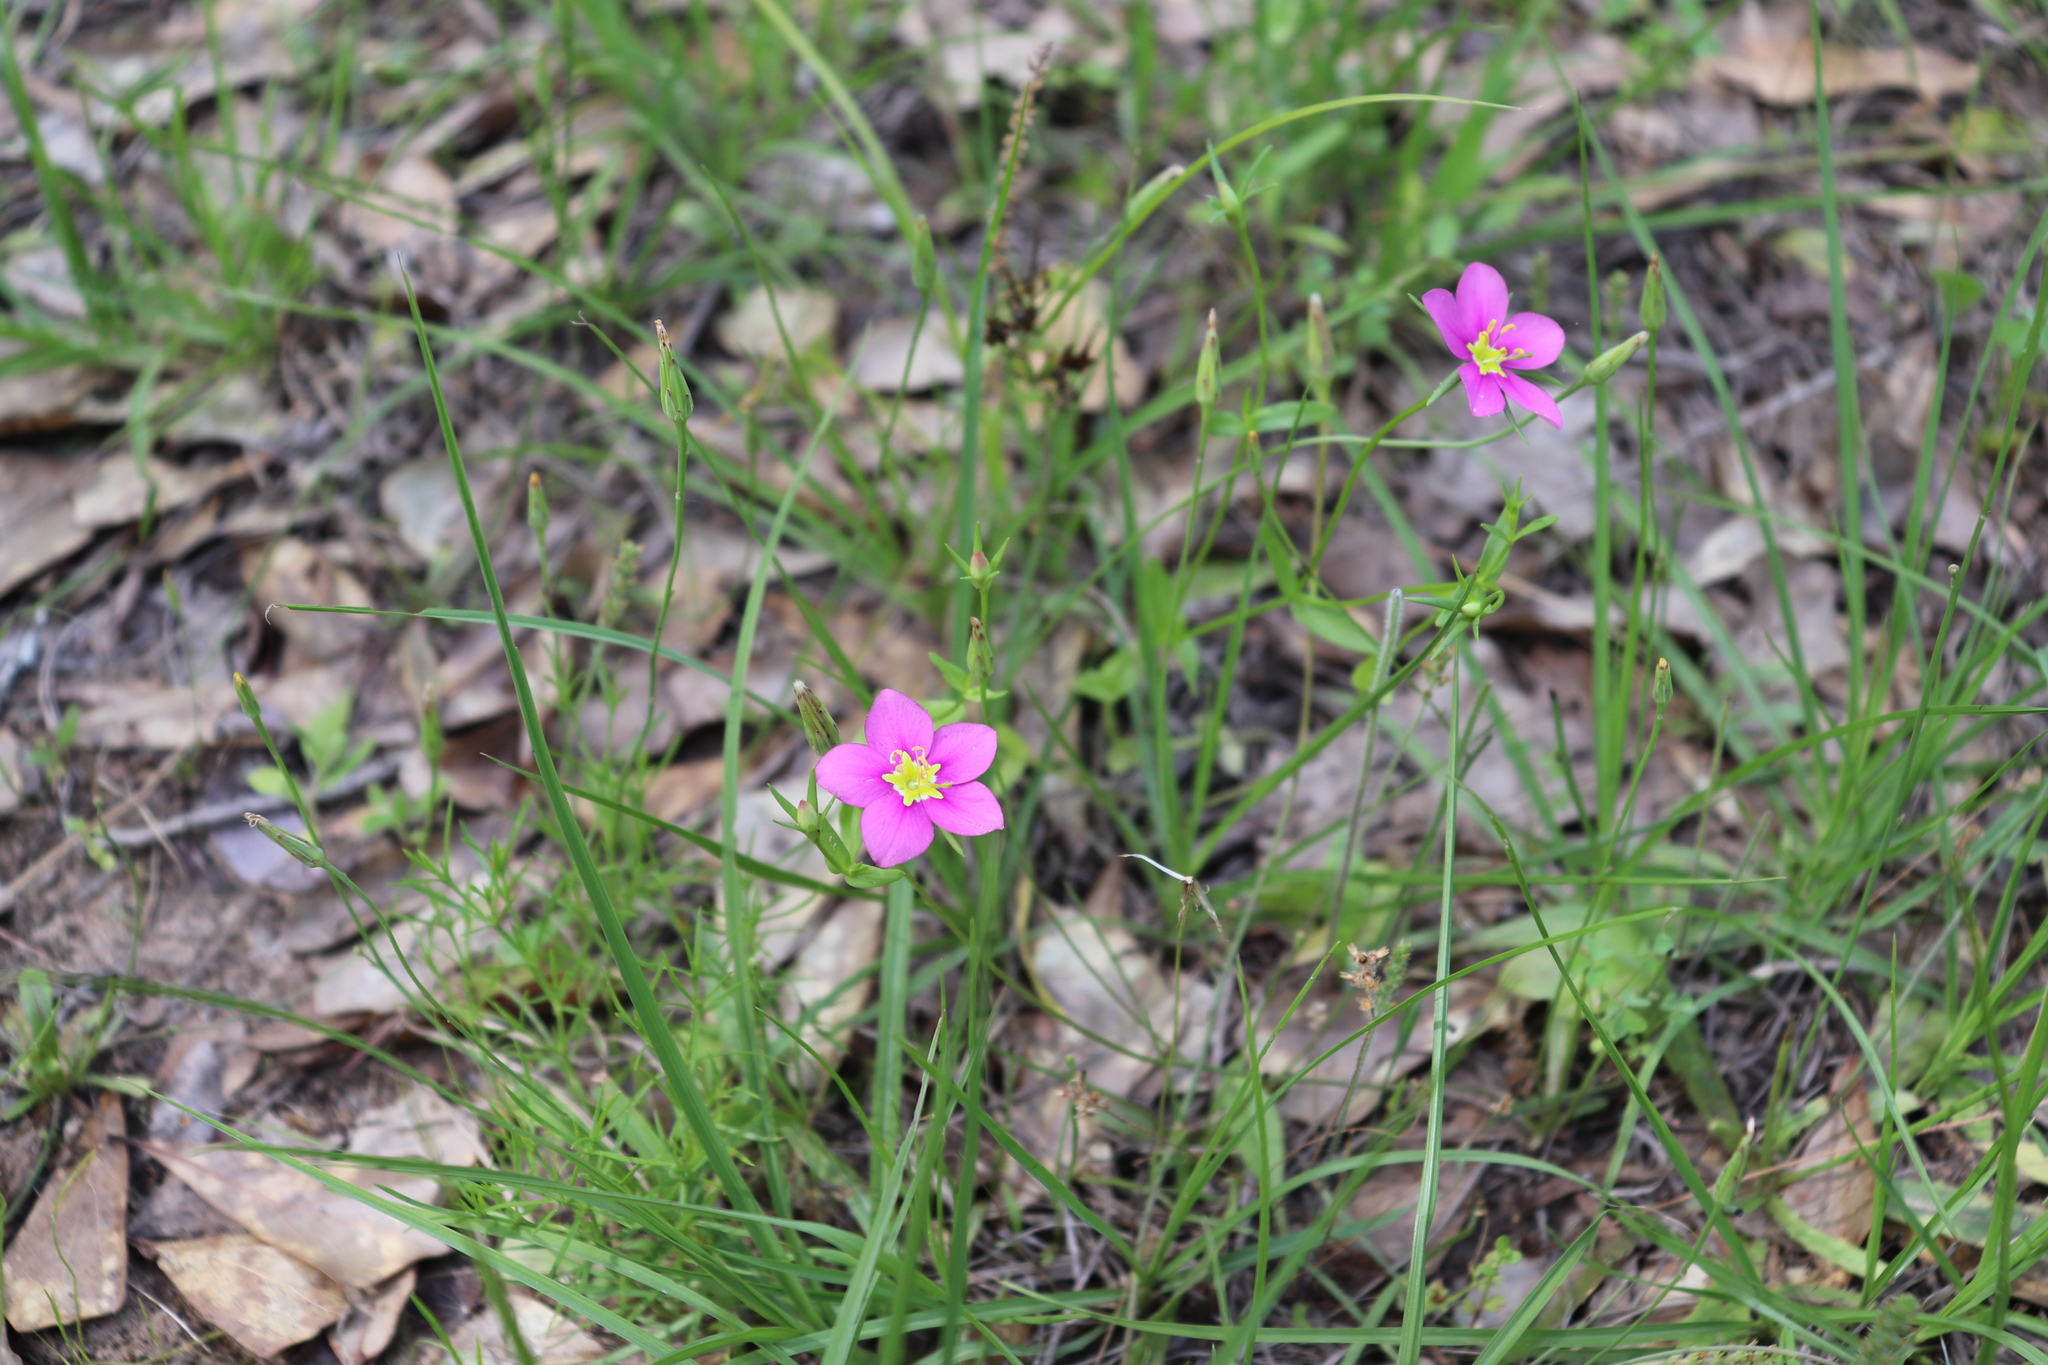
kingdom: Plantae
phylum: Tracheophyta
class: Magnoliopsida
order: Gentianales
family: Gentianaceae
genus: Sabatia
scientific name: Sabatia campestris
